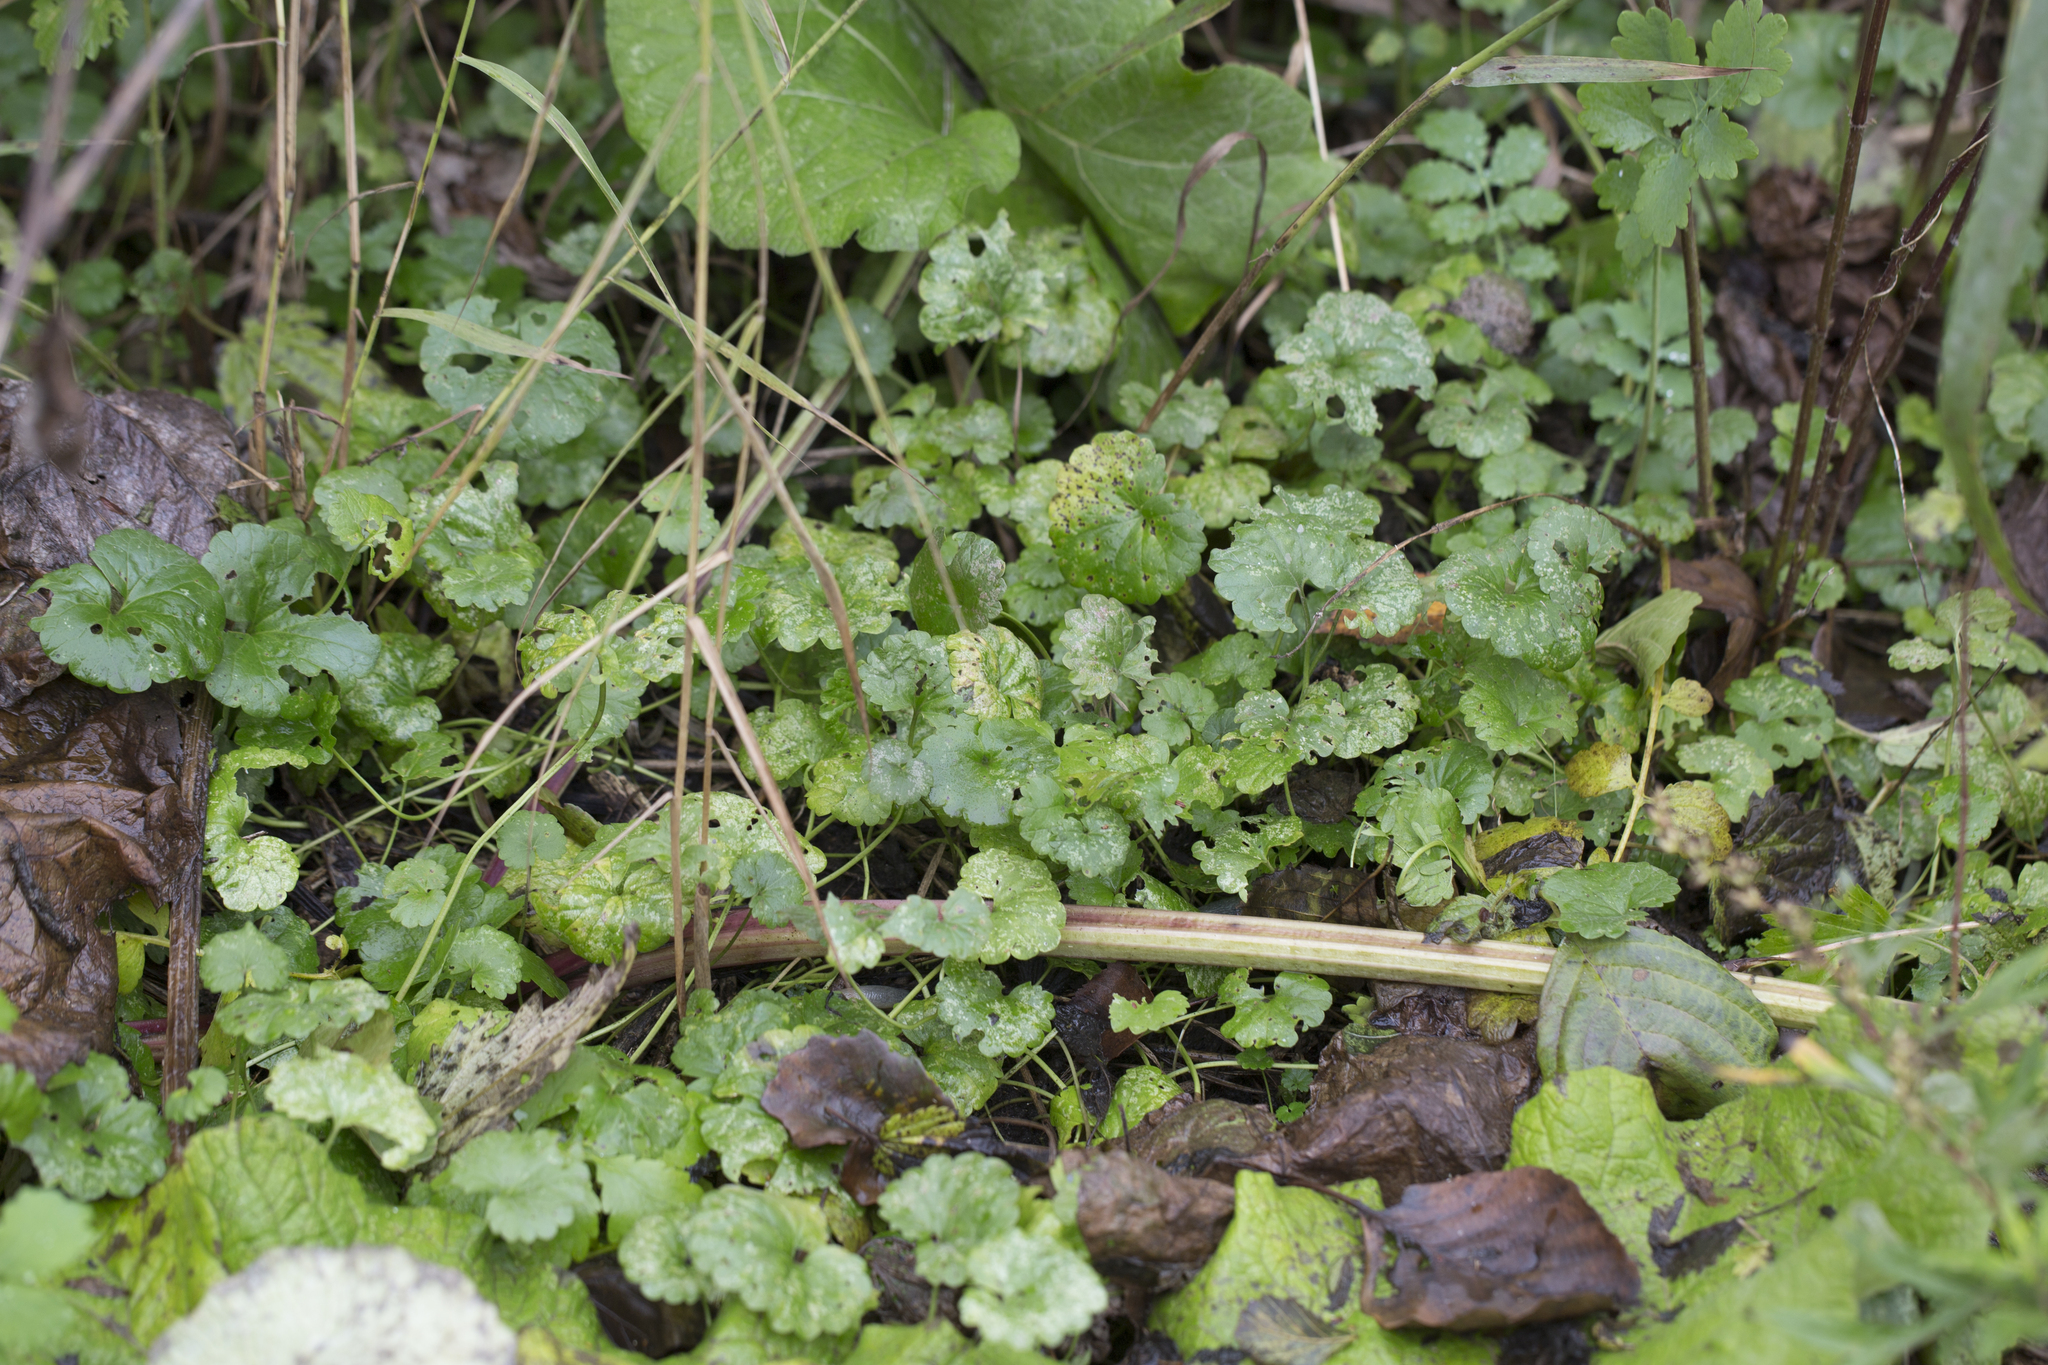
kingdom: Plantae
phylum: Tracheophyta
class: Magnoliopsida
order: Lamiales
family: Lamiaceae
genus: Glechoma
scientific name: Glechoma hederacea
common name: Ground ivy
